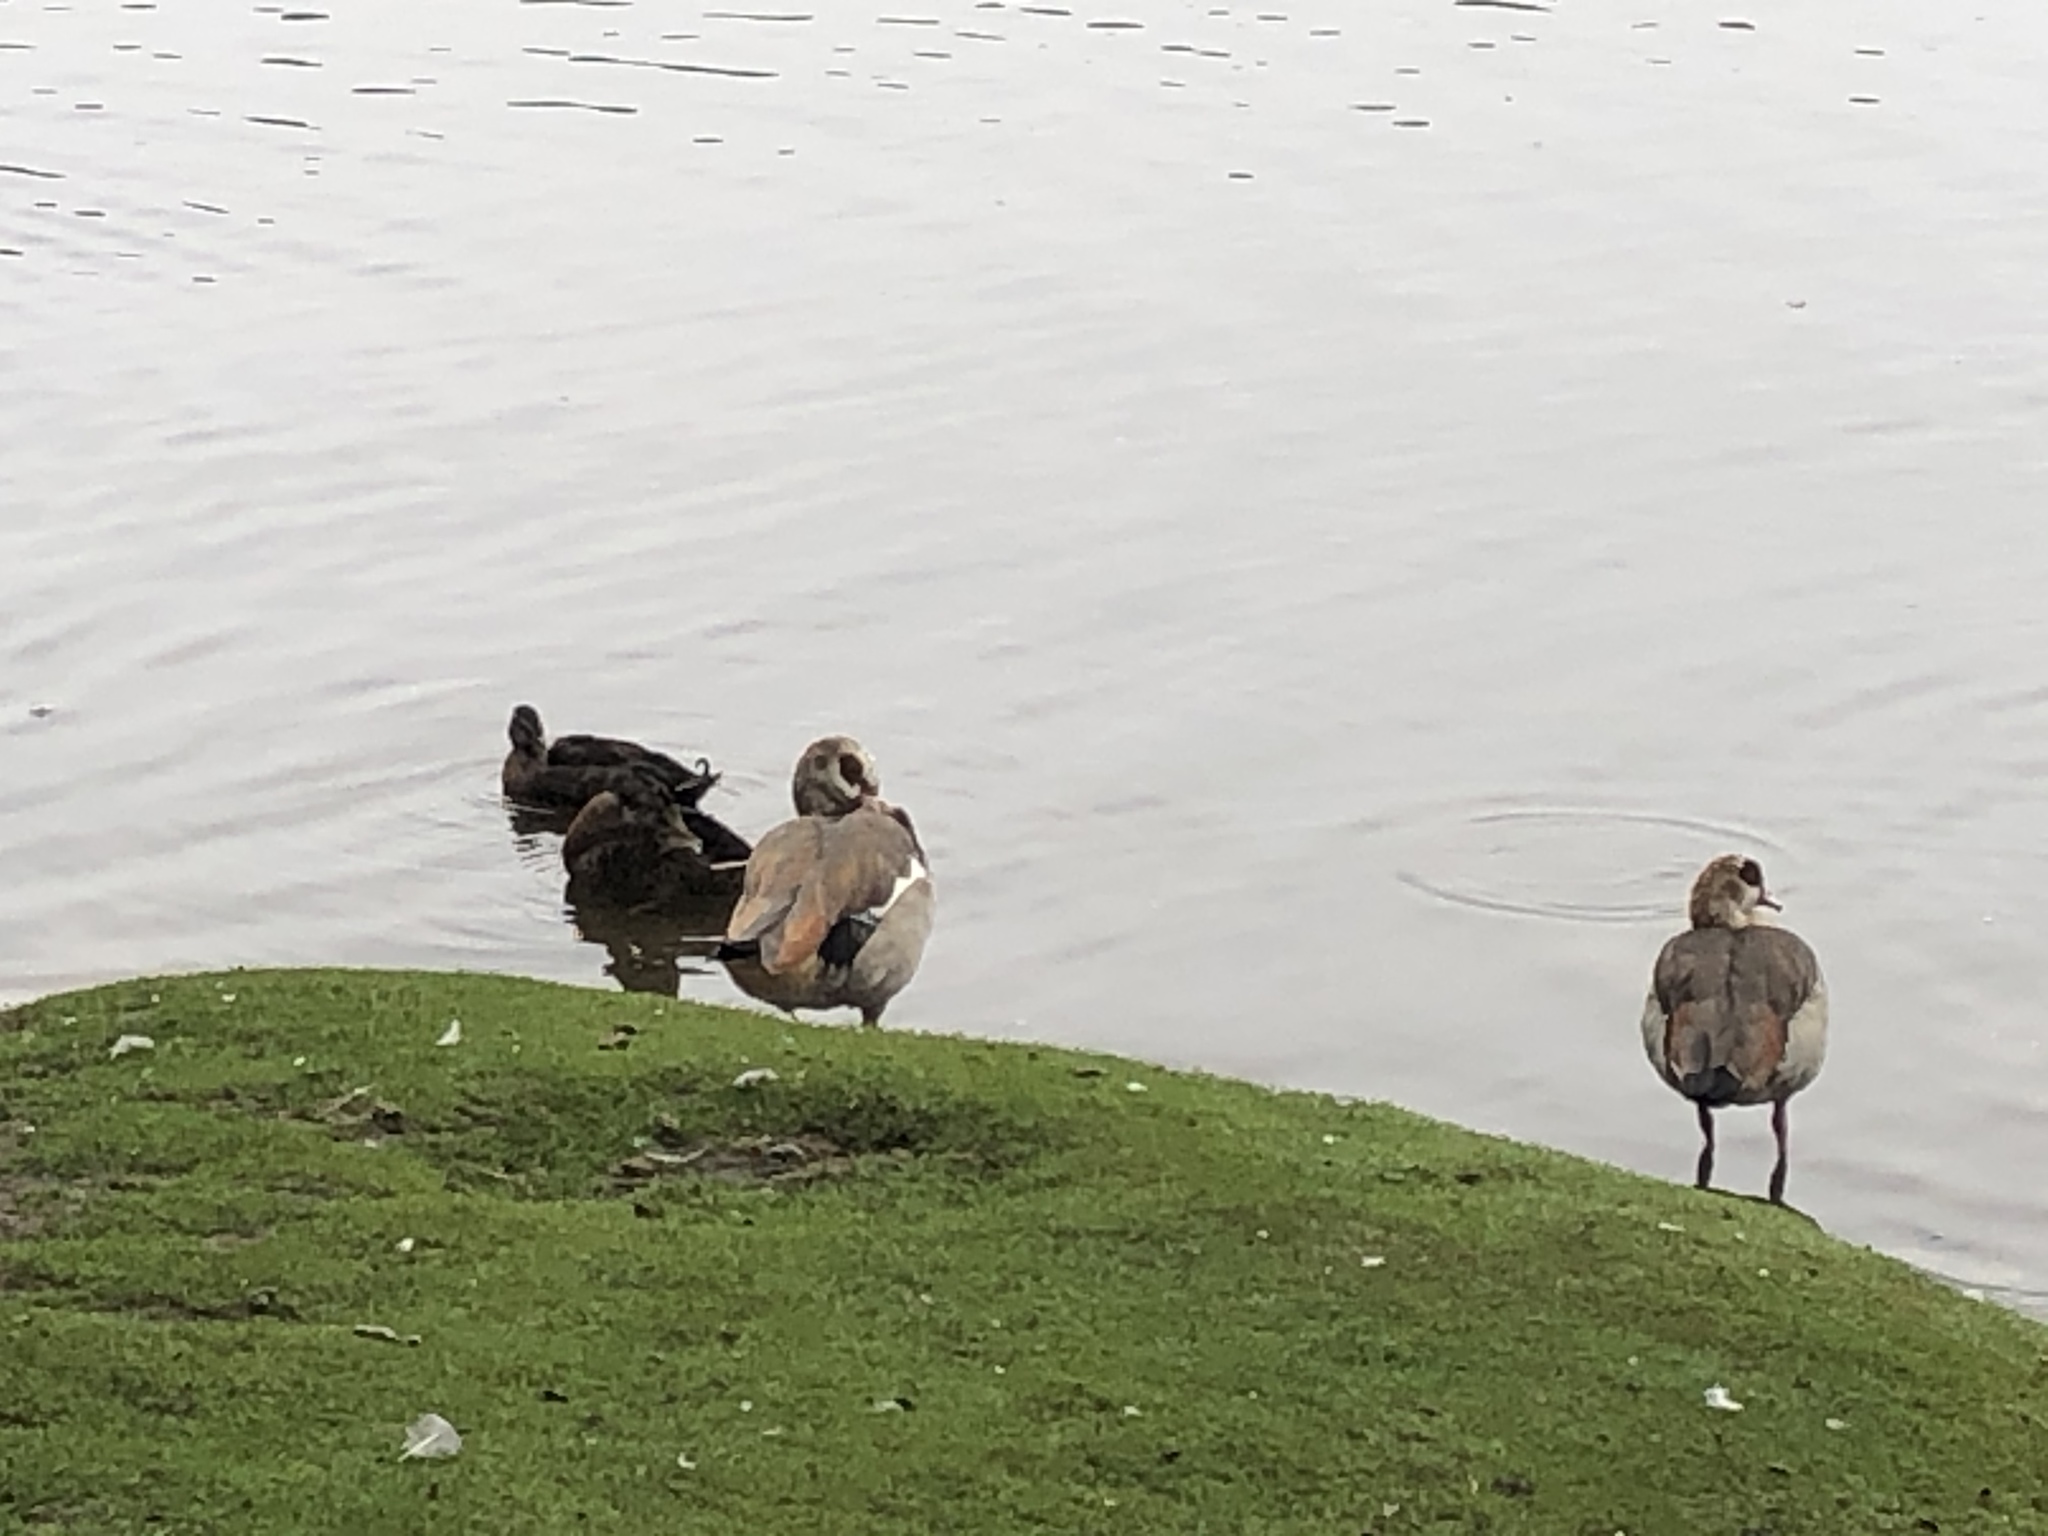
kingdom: Animalia
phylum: Chordata
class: Aves
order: Anseriformes
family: Anatidae
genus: Alopochen
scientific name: Alopochen aegyptiaca
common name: Egyptian goose
